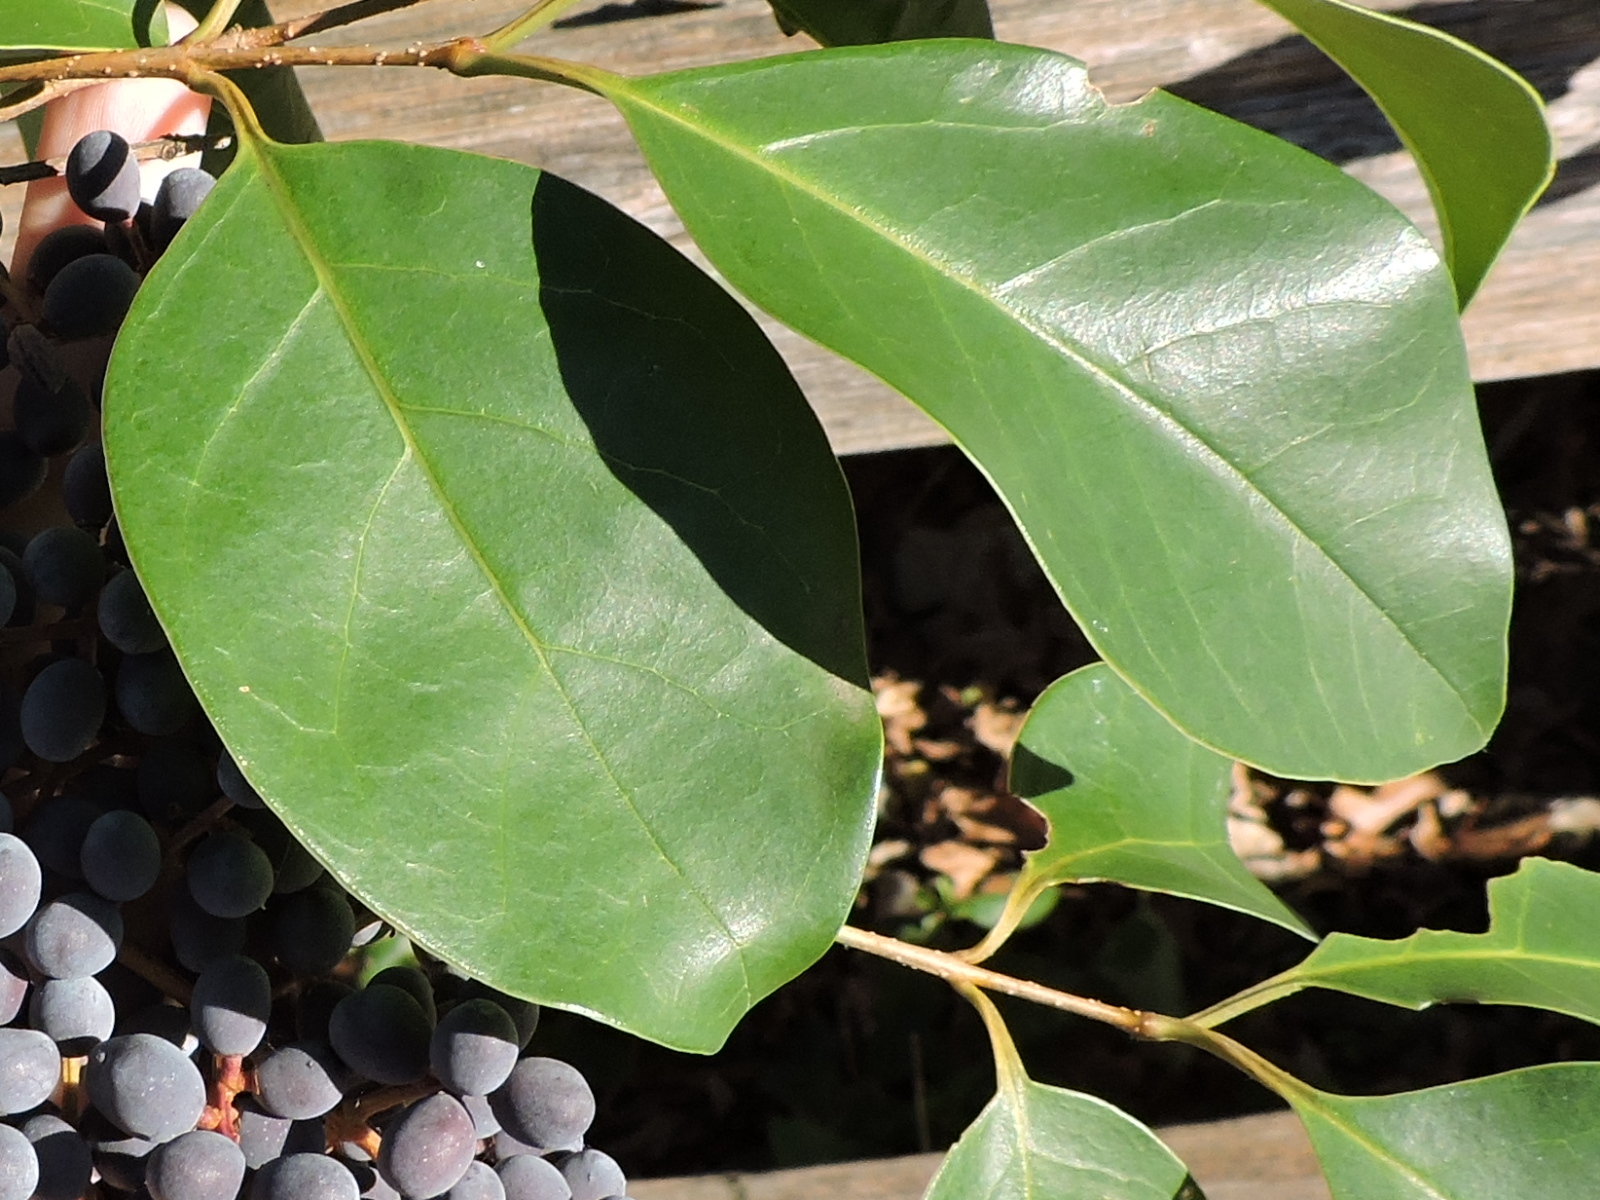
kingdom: Plantae
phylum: Tracheophyta
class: Magnoliopsida
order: Lamiales
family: Oleaceae
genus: Ligustrum
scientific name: Ligustrum lucidum
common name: Glossy privet
